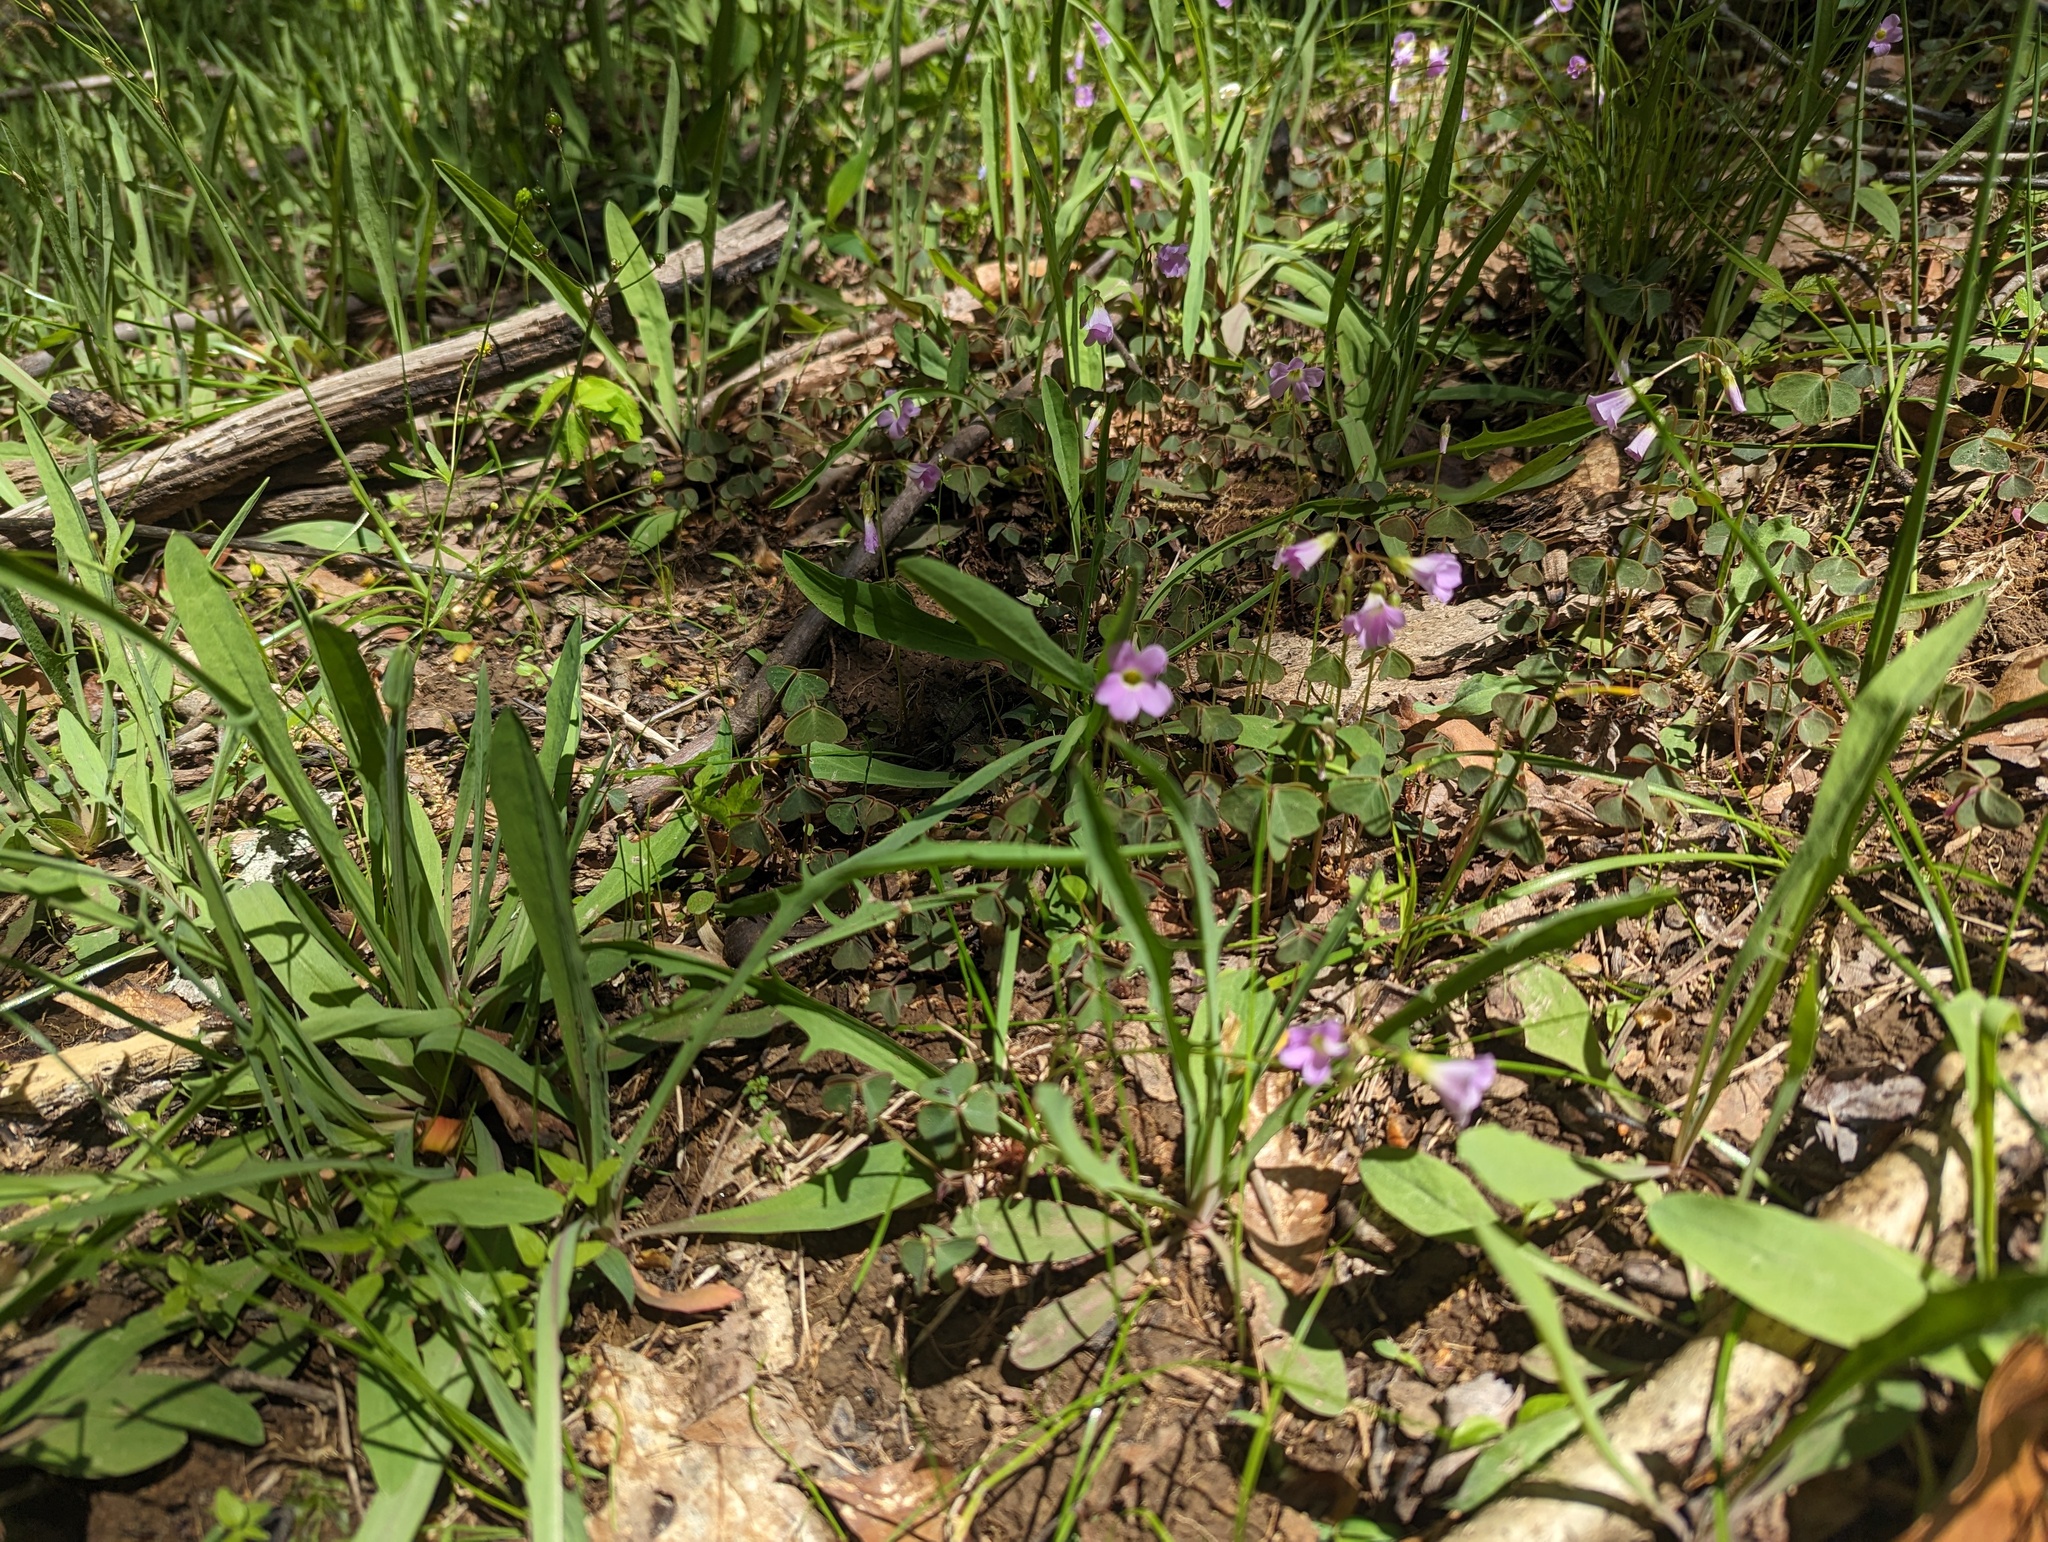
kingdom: Plantae
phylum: Tracheophyta
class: Magnoliopsida
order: Oxalidales
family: Oxalidaceae
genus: Oxalis
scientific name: Oxalis violacea
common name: Violet wood-sorrel
